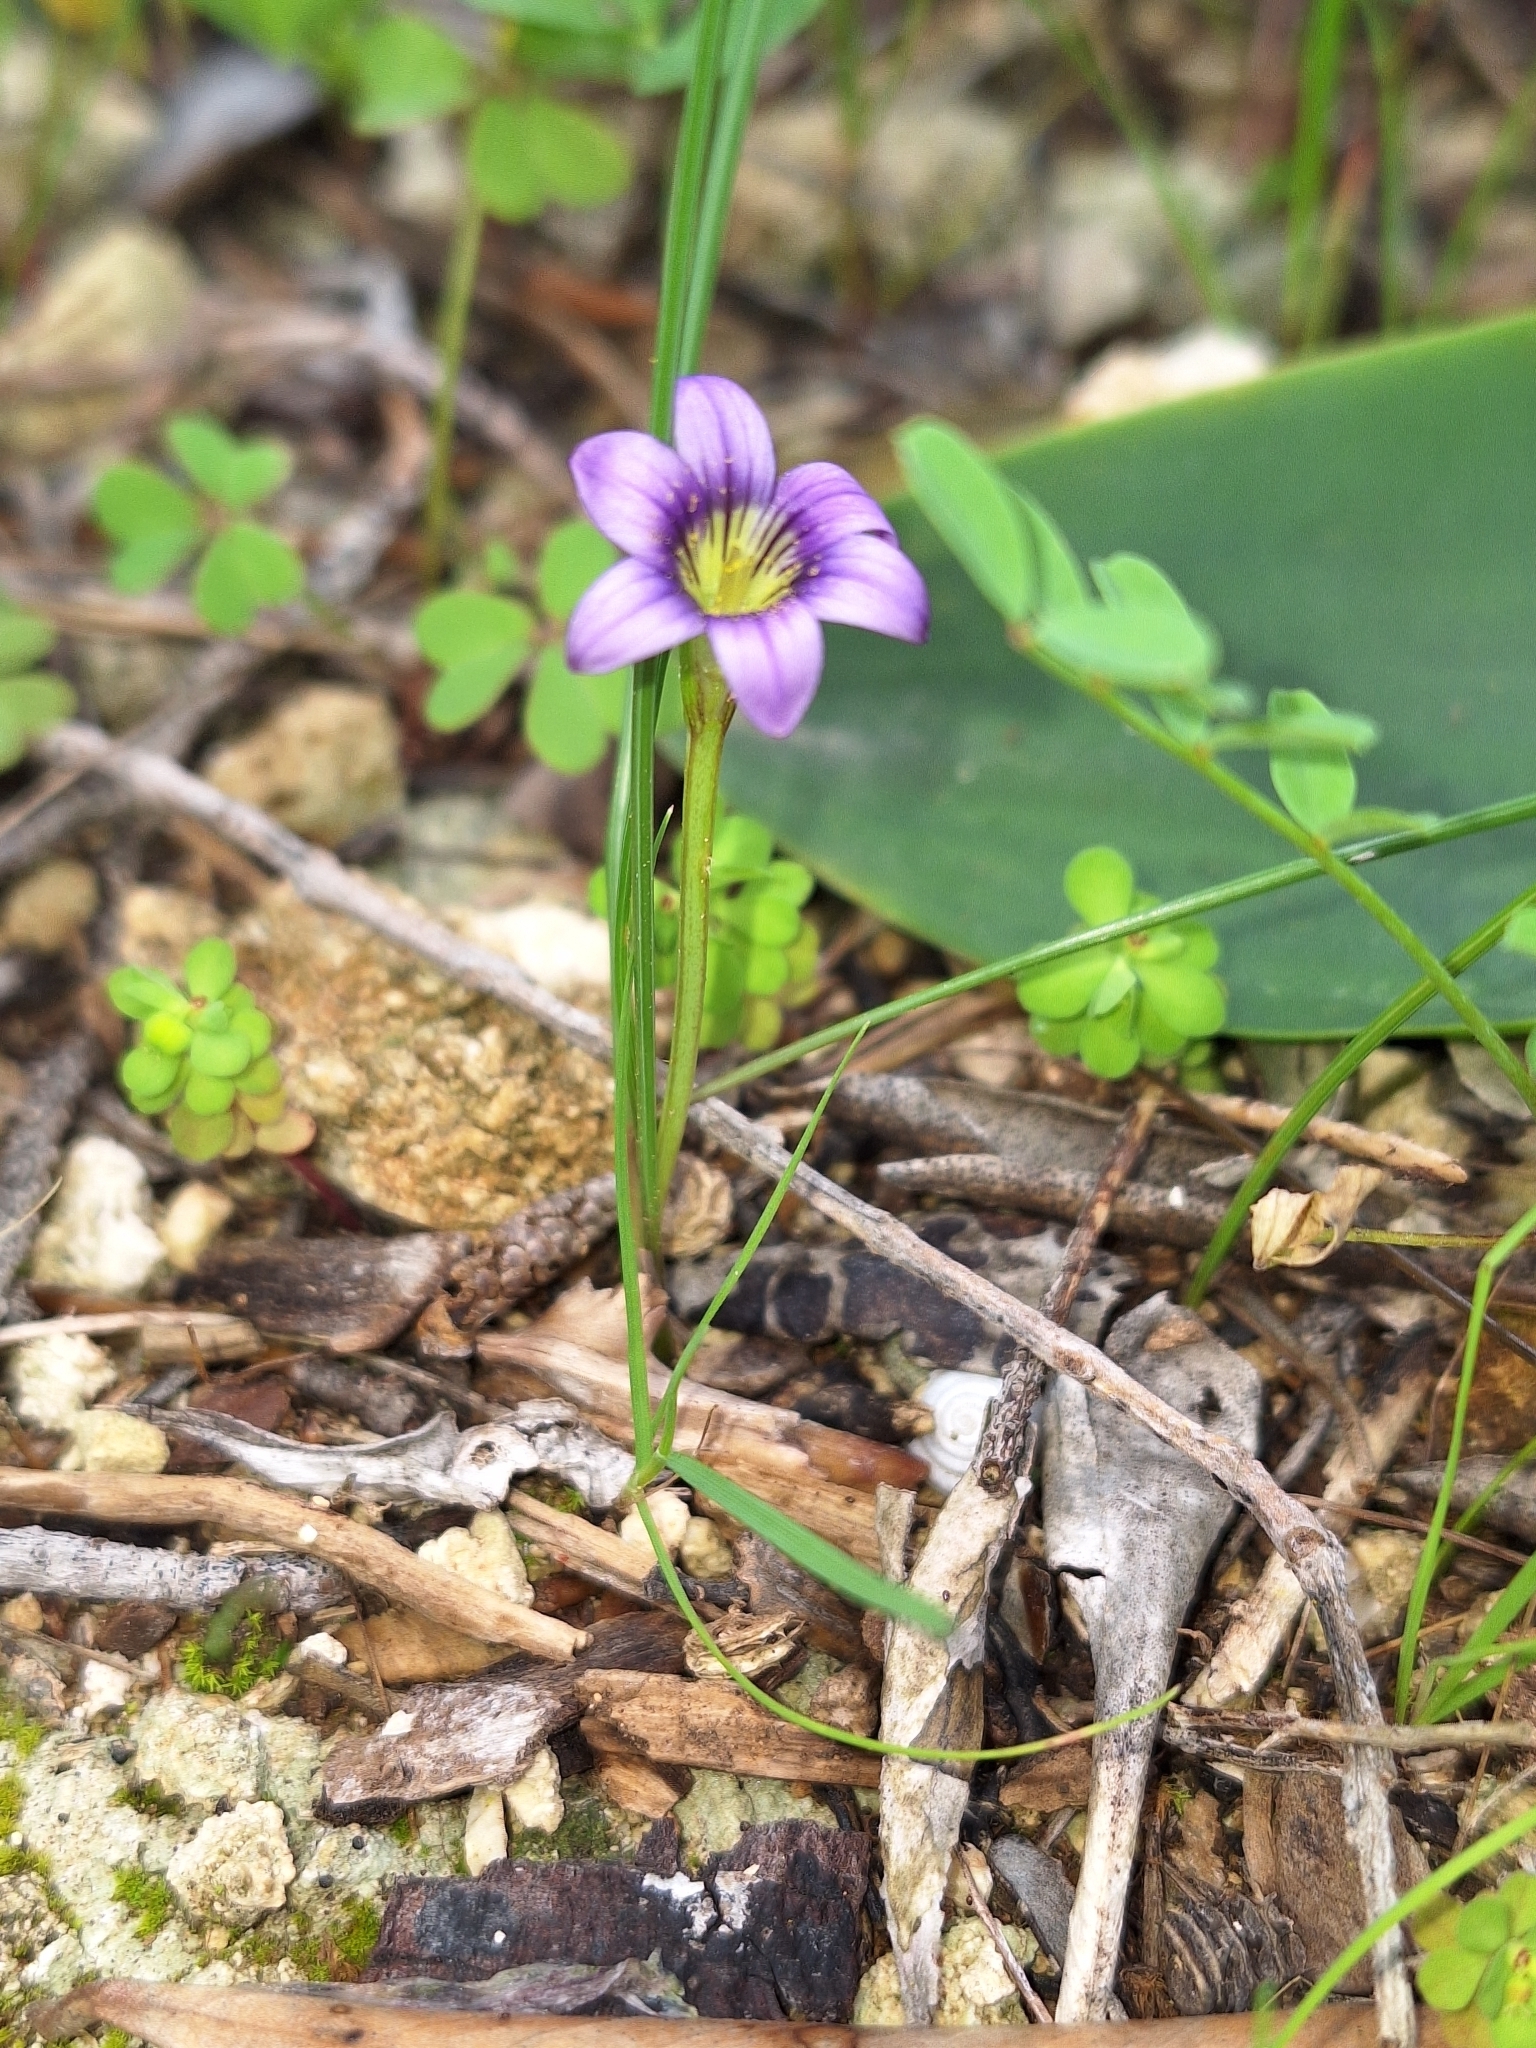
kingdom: Plantae
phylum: Tracheophyta
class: Liliopsida
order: Asparagales
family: Iridaceae
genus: Romulea
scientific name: Romulea variicolor
